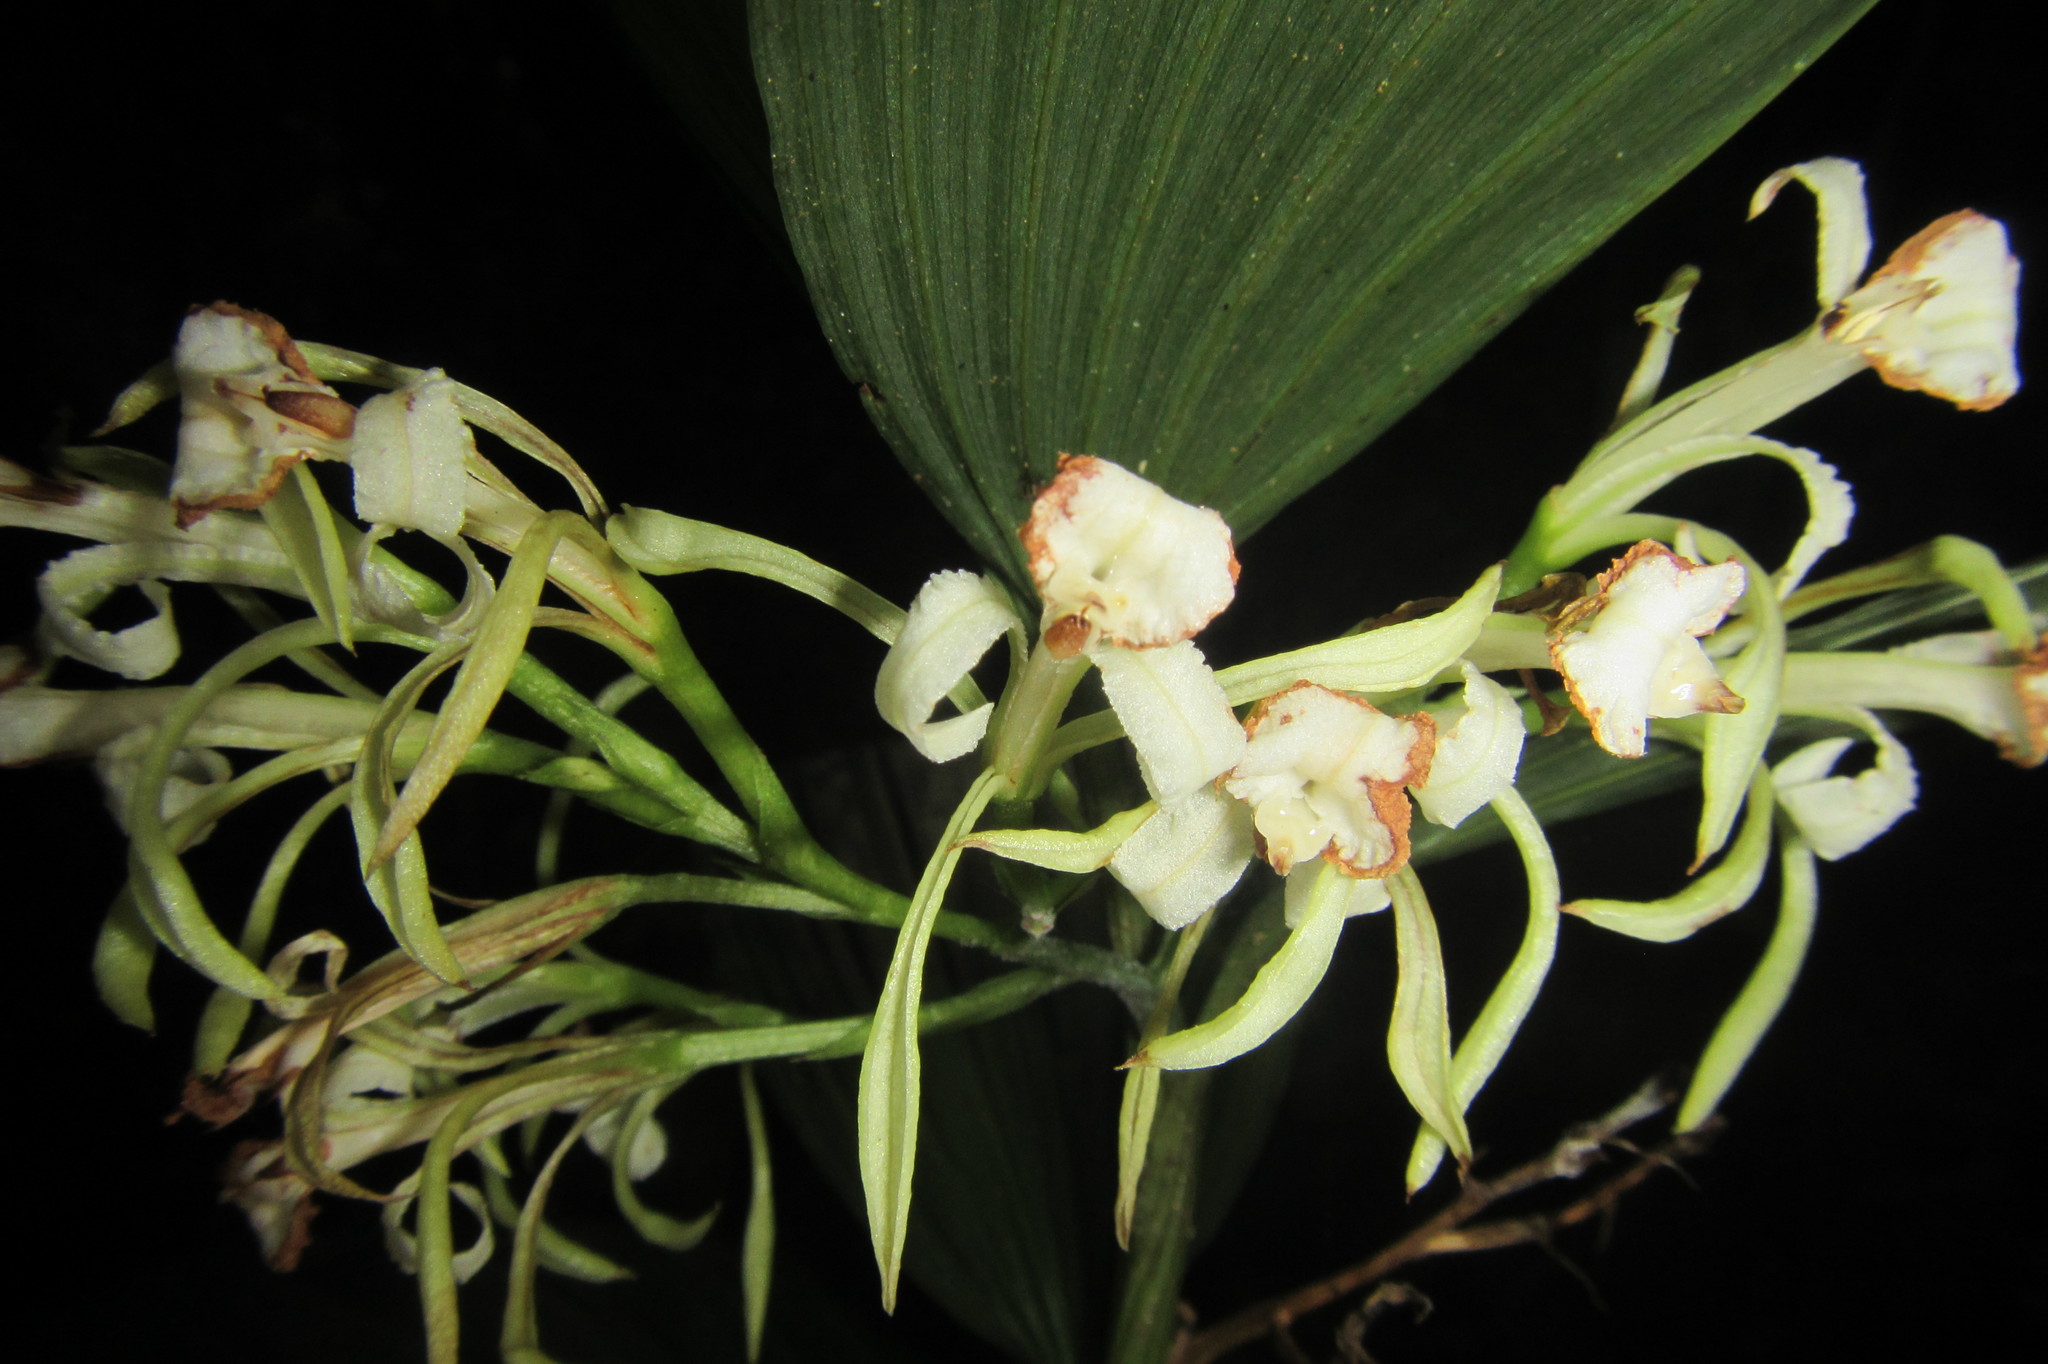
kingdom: Plantae
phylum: Tracheophyta
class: Liliopsida
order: Asparagales
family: Orchidaceae
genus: Corymborkis
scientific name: Corymborkis veratrifolia
